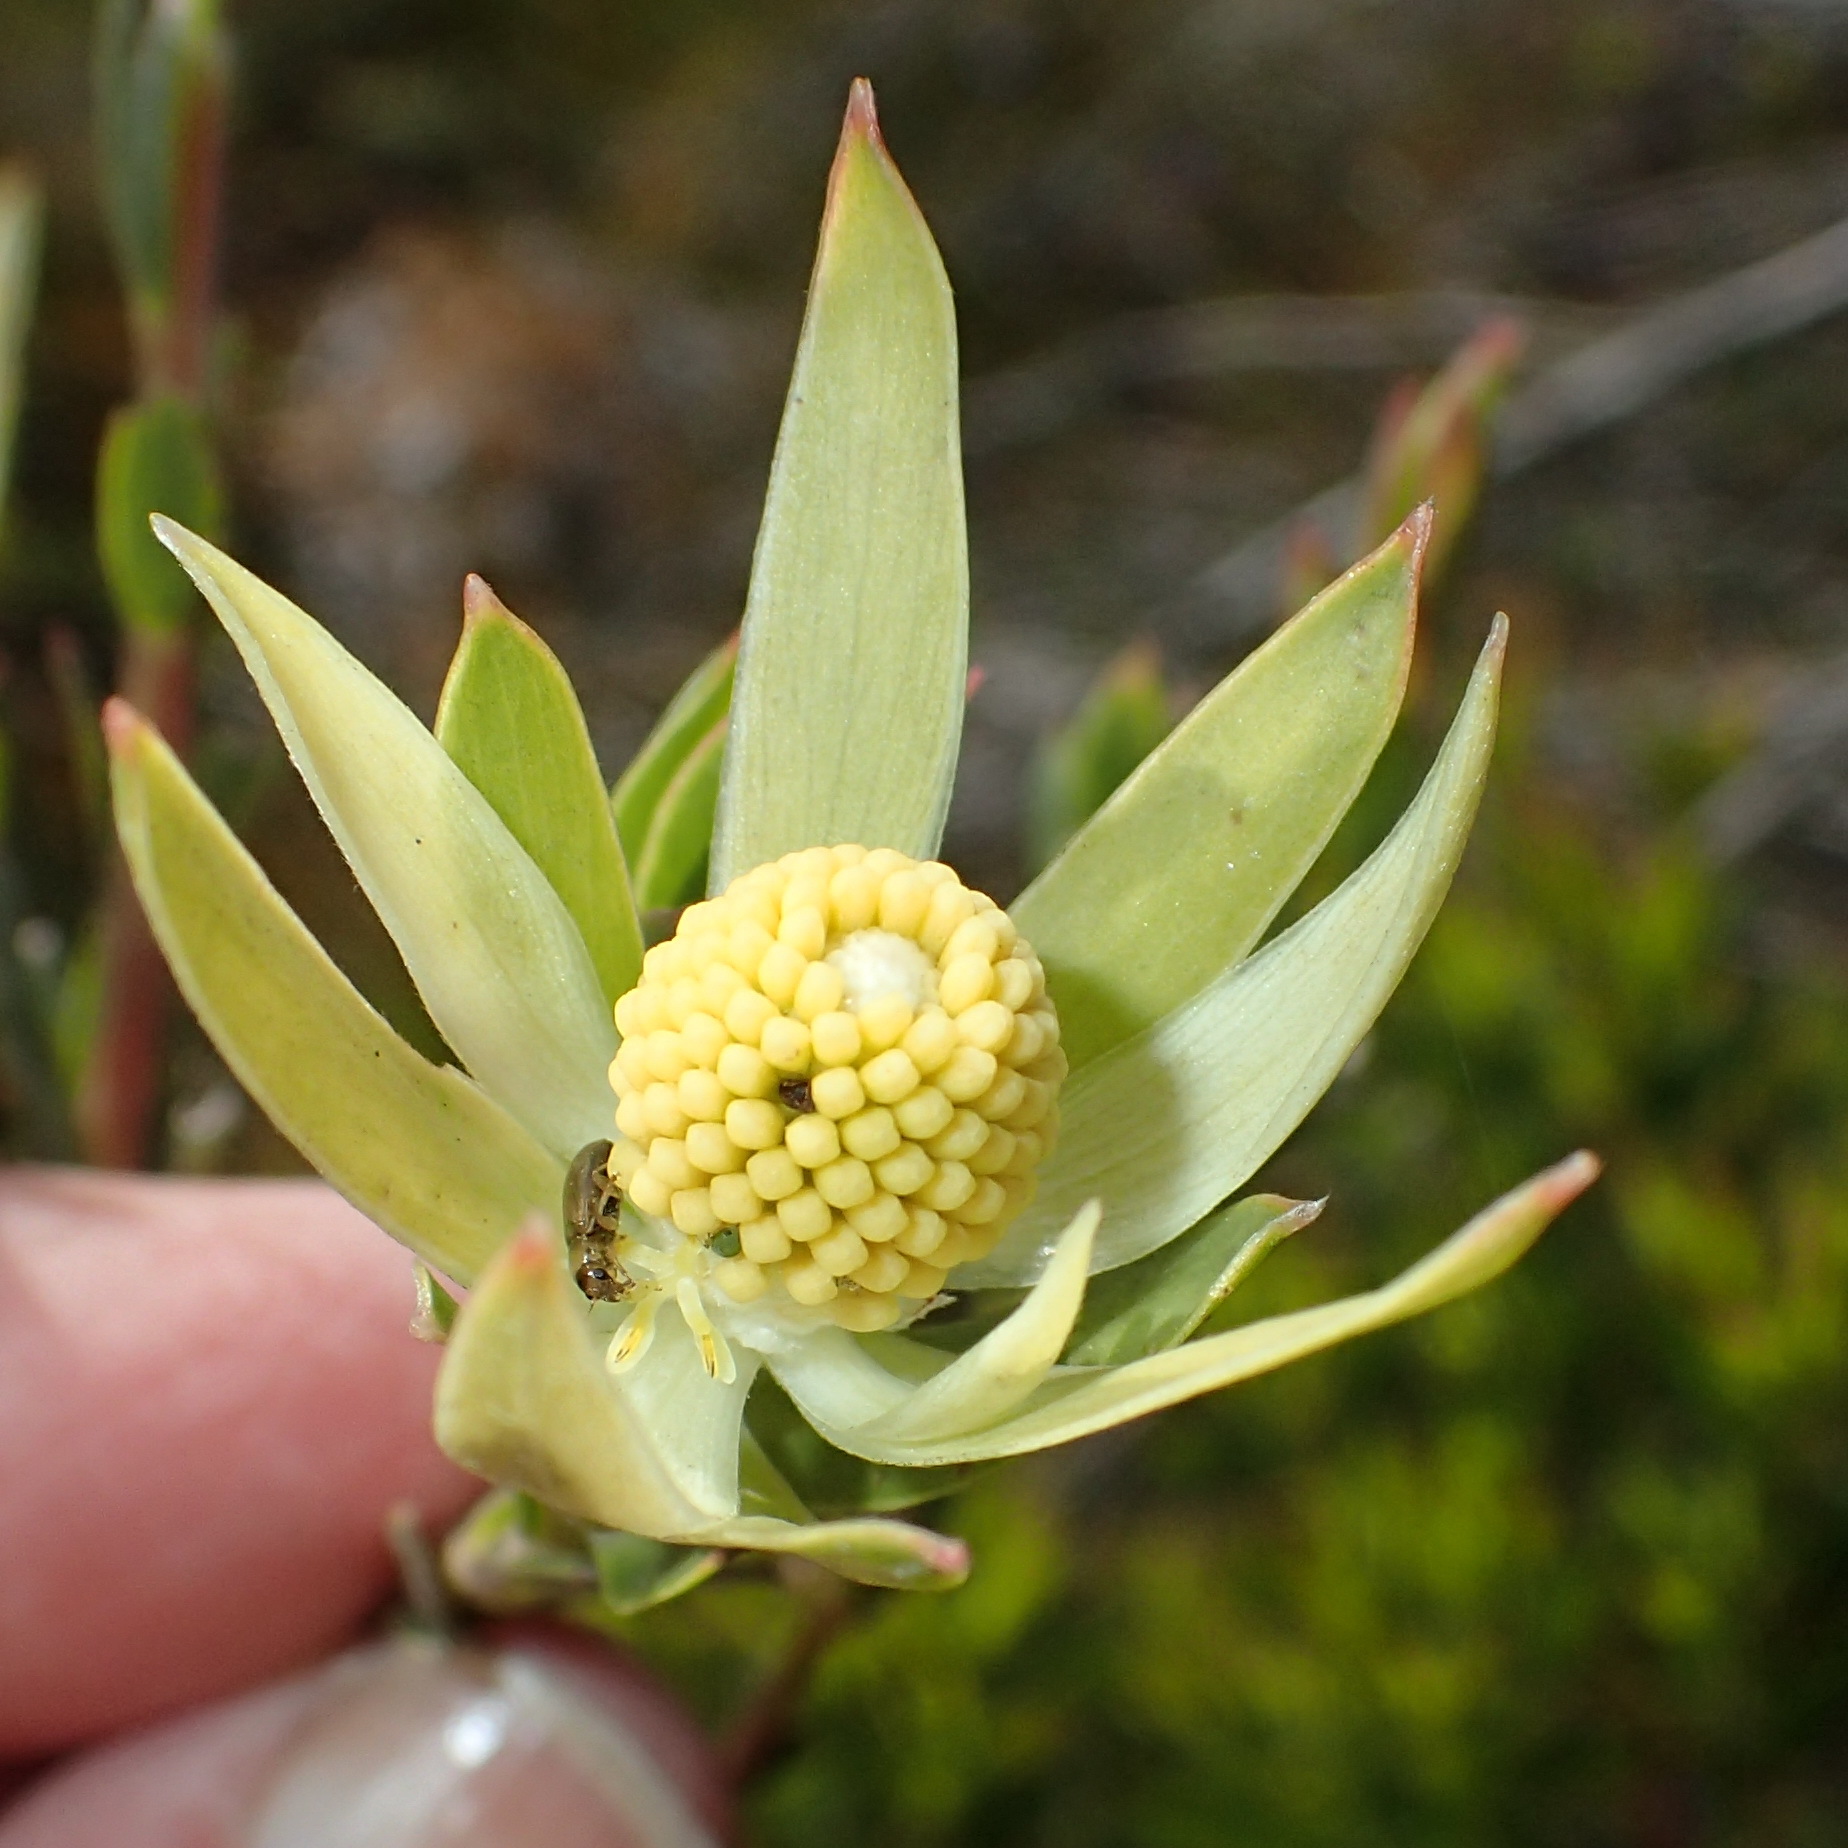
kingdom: Plantae
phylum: Tracheophyta
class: Magnoliopsida
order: Proteales
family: Proteaceae
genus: Leucadendron
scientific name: Leucadendron uliginosum
